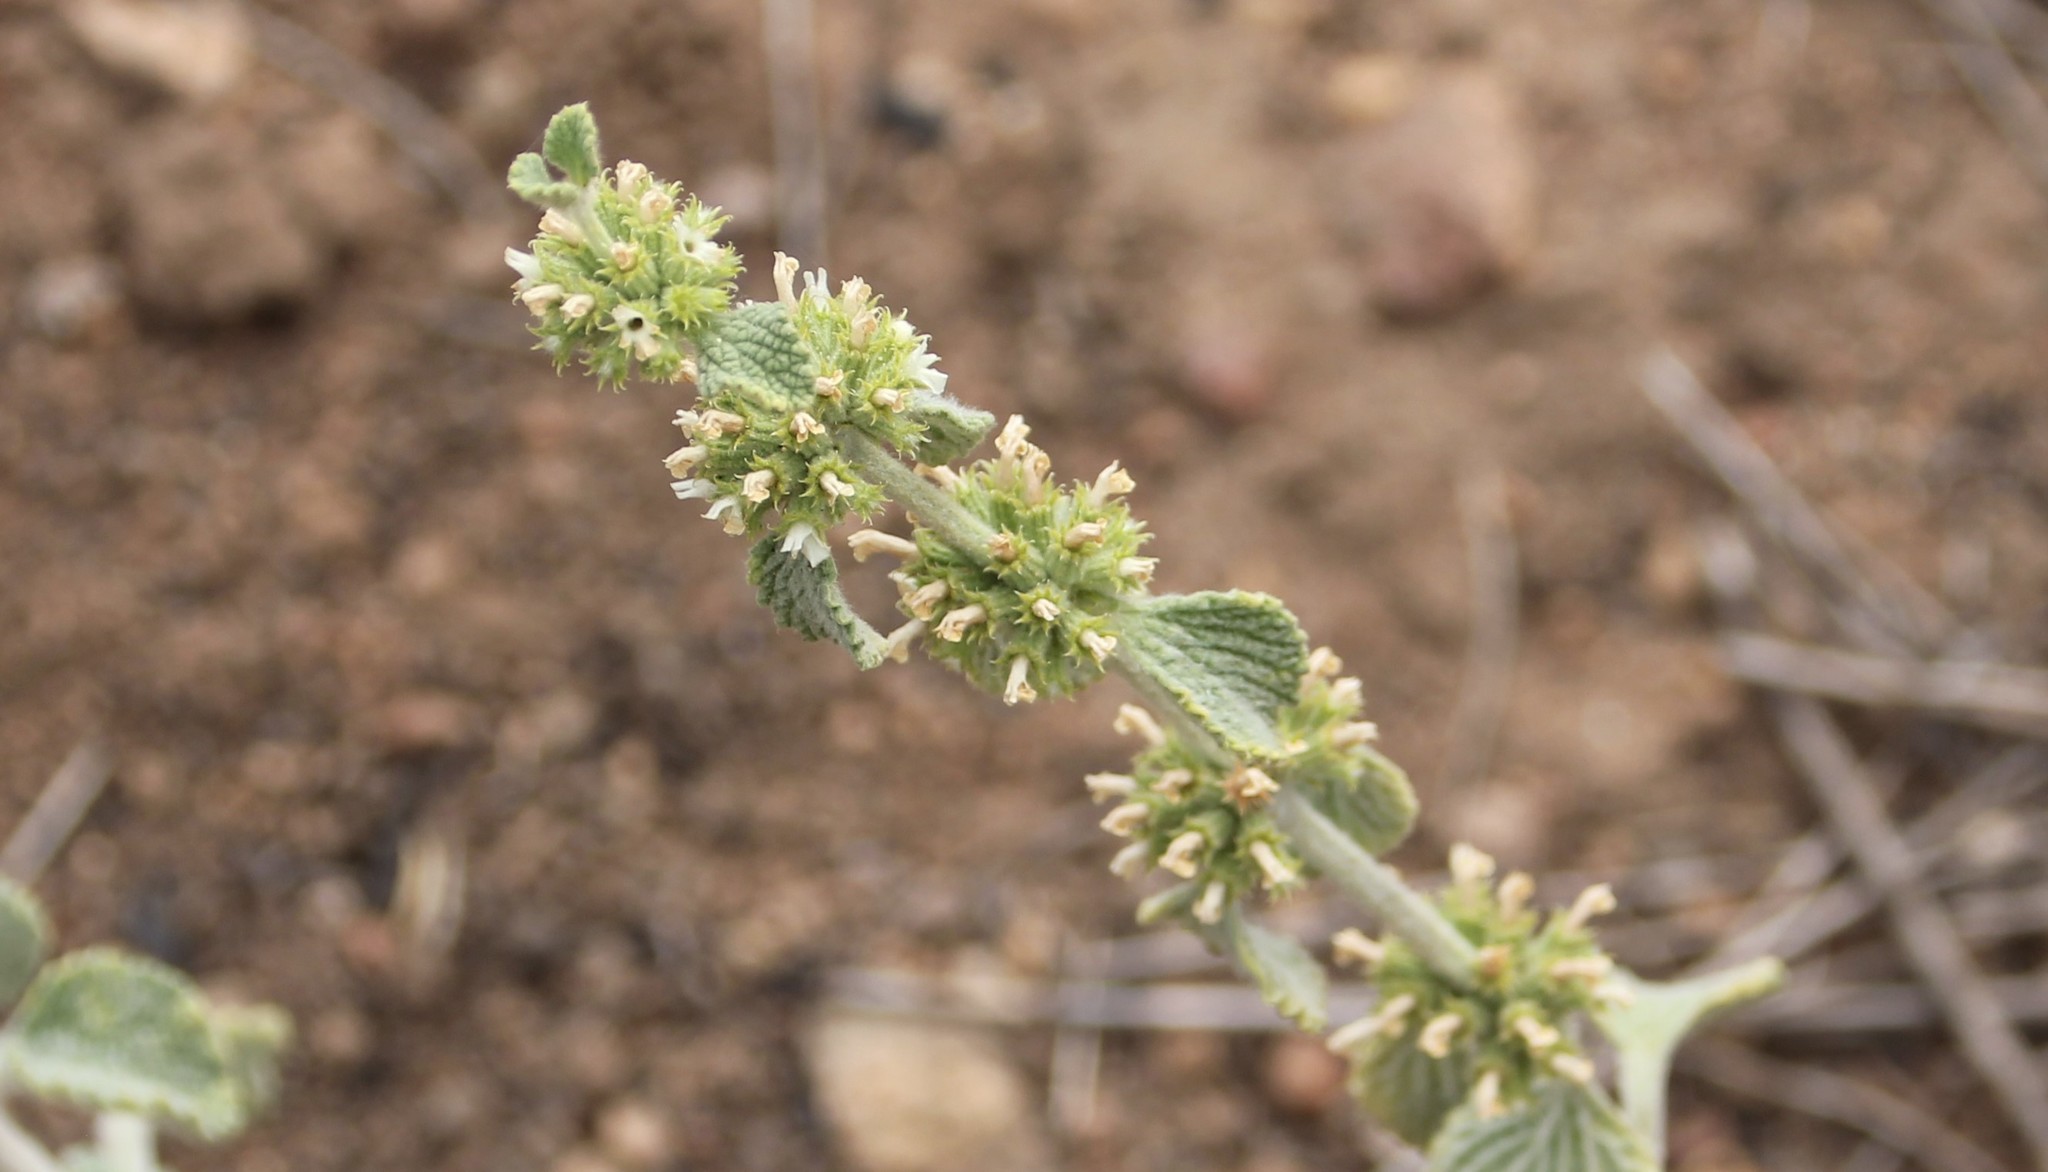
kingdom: Plantae
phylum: Tracheophyta
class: Magnoliopsida
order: Lamiales
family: Lamiaceae
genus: Marrubium
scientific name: Marrubium vulgare
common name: Horehound
